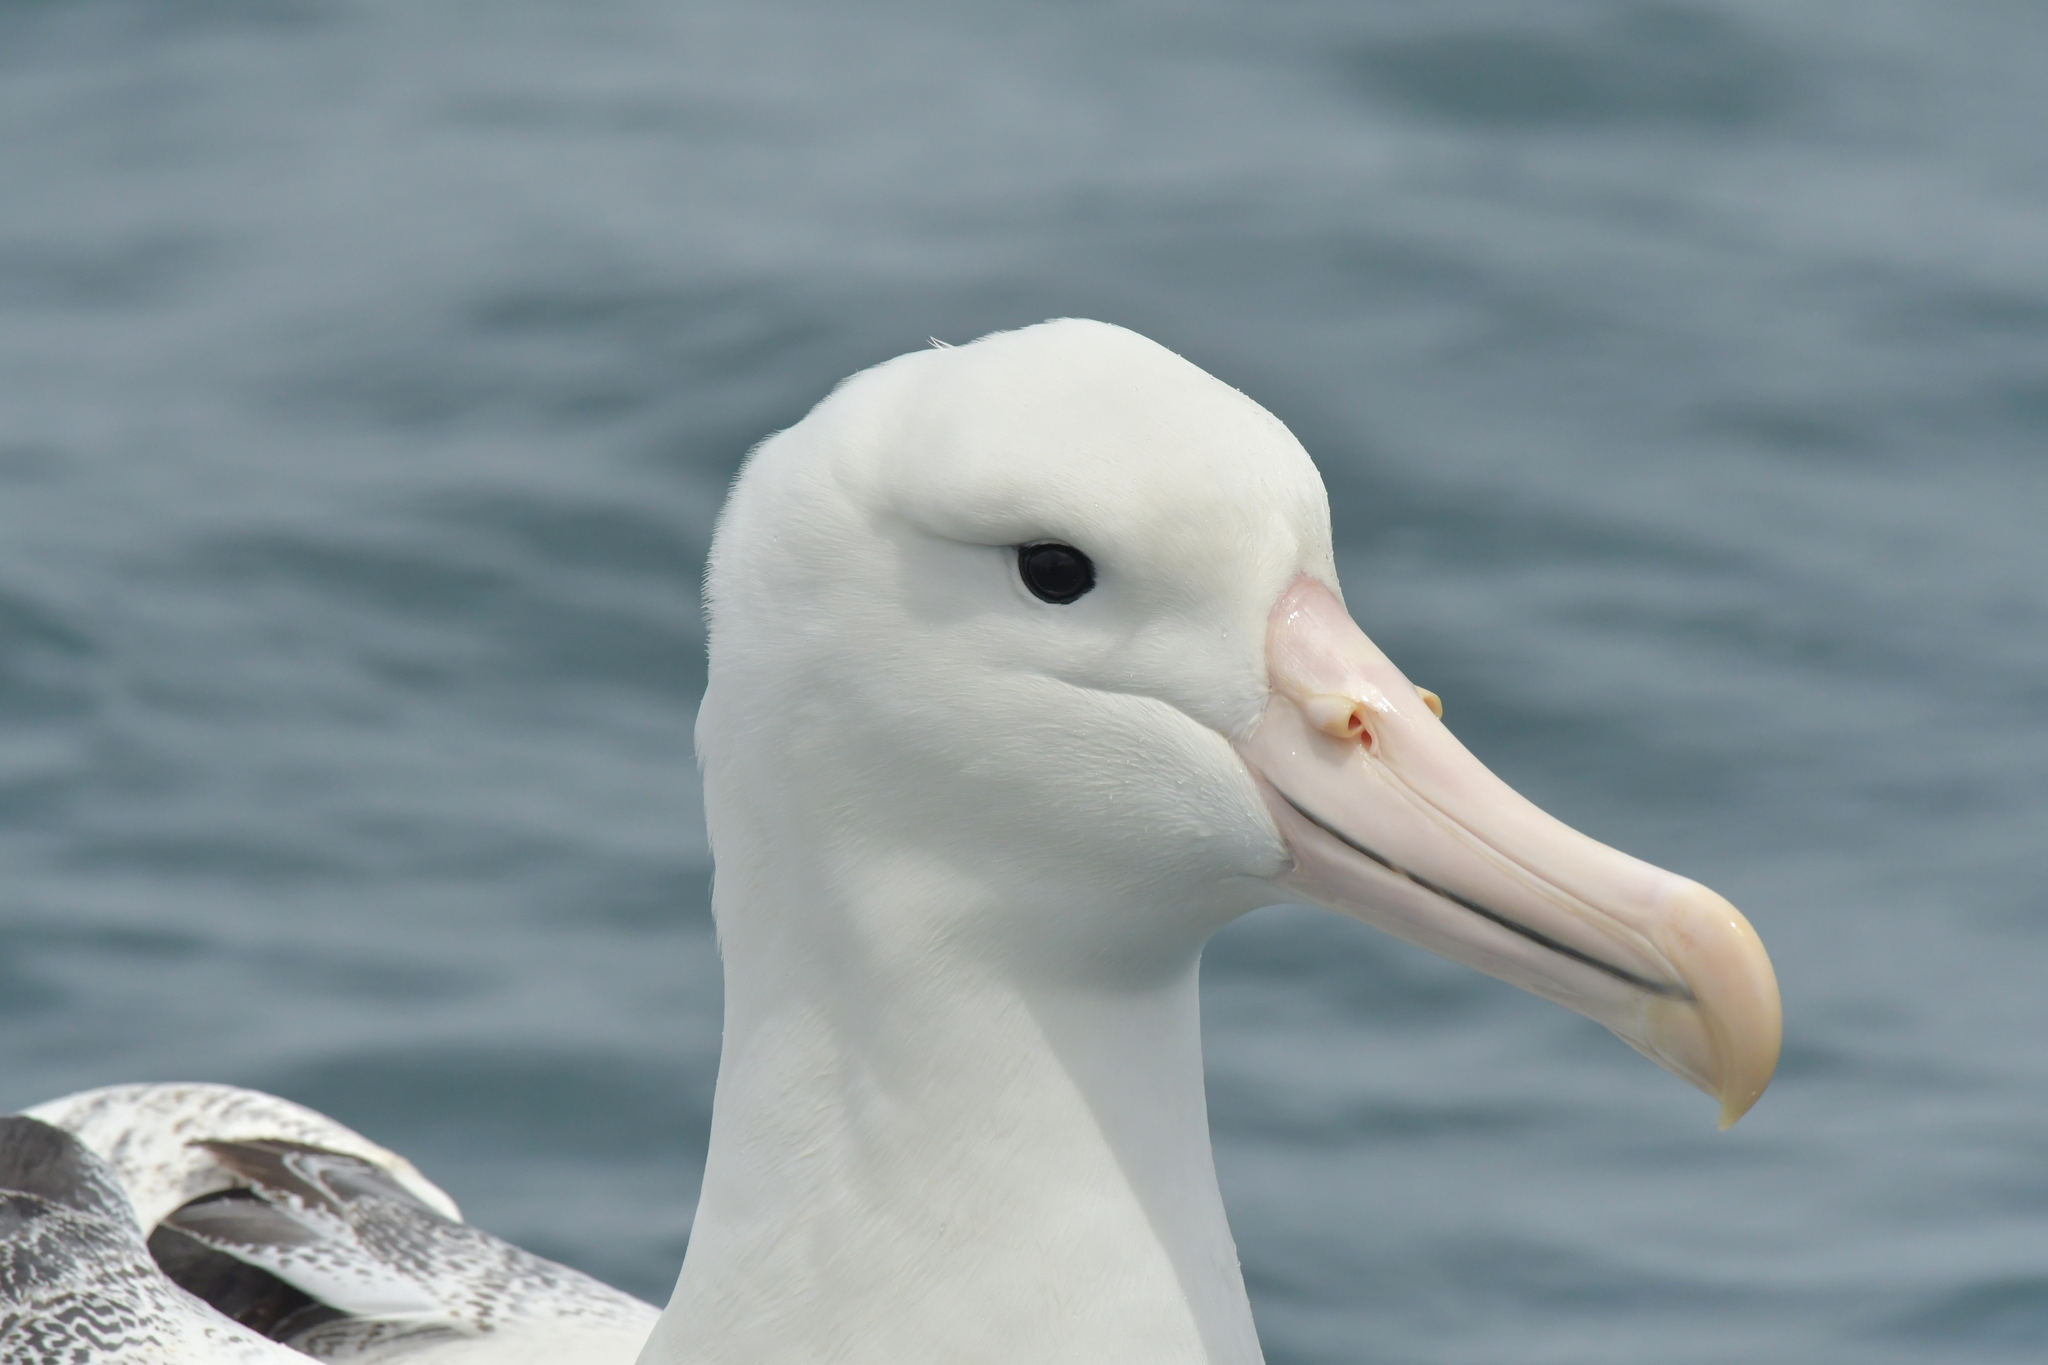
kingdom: Animalia
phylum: Chordata
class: Aves
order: Procellariiformes
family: Diomedeidae
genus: Diomedea
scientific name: Diomedea epomophora
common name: Southern royal albatross
